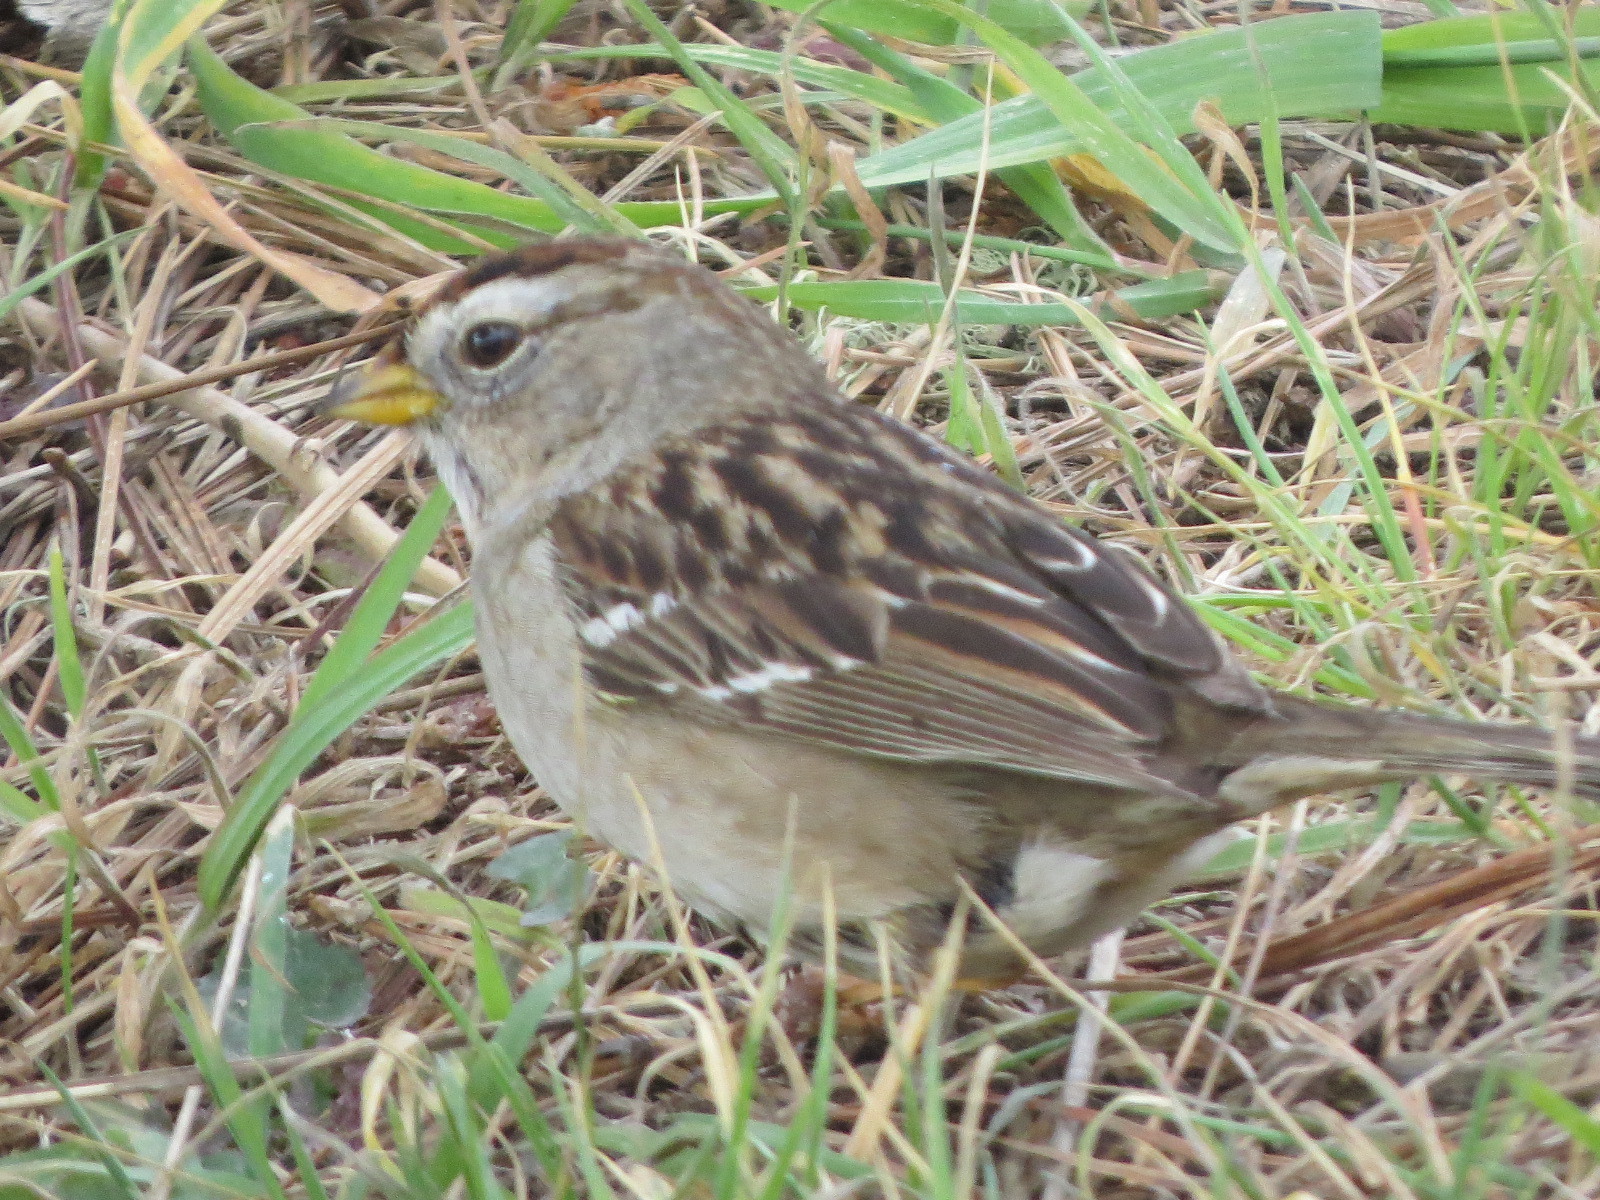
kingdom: Animalia
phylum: Chordata
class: Aves
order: Passeriformes
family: Passerellidae
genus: Zonotrichia
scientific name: Zonotrichia leucophrys
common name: White-crowned sparrow
